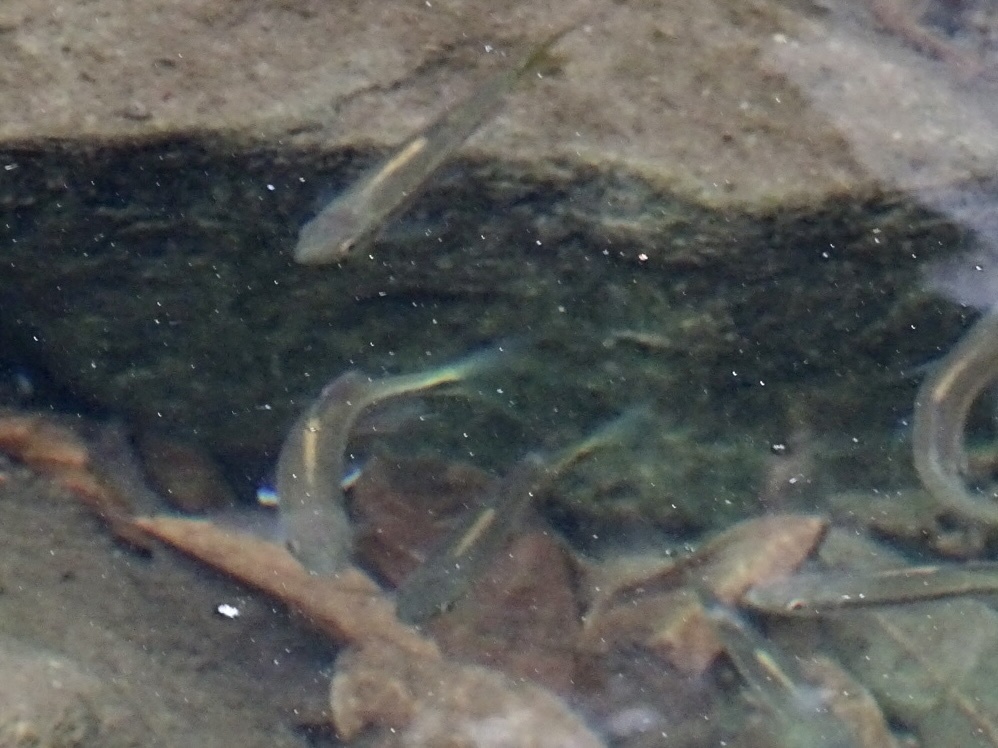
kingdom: Animalia
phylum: Chordata
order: Cypriniformes
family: Cyprinidae
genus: Parazacco
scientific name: Parazacco spilurus
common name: Predaceous chub
